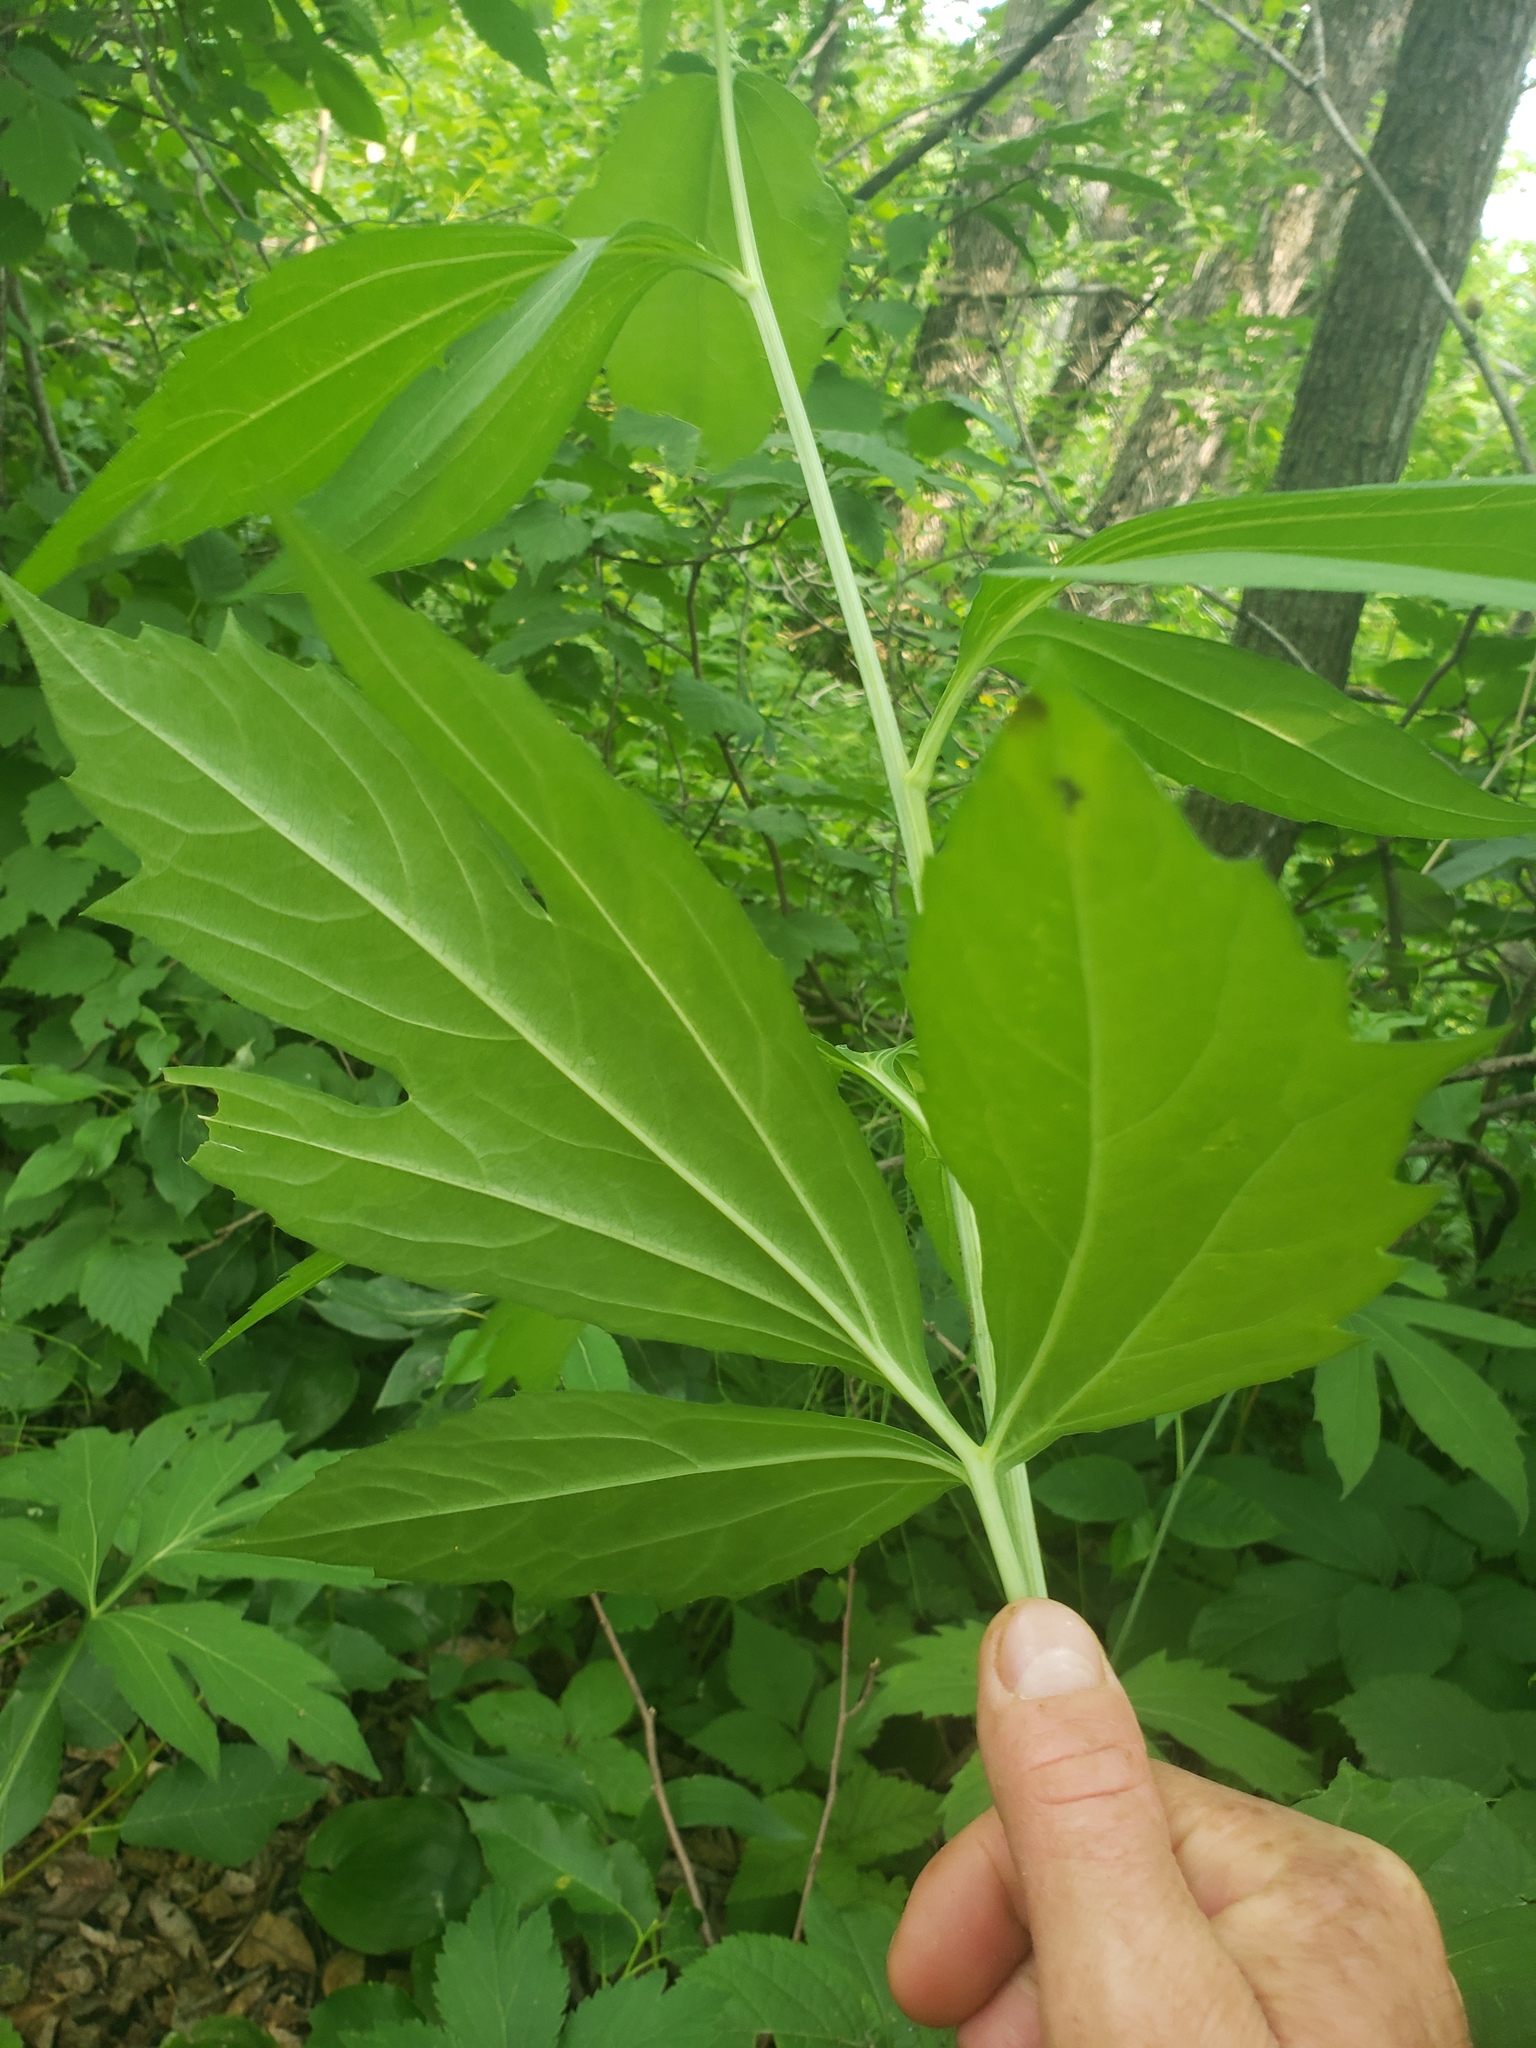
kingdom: Plantae
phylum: Tracheophyta
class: Magnoliopsida
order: Asterales
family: Asteraceae
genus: Rudbeckia
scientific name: Rudbeckia laciniata
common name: Coneflower
